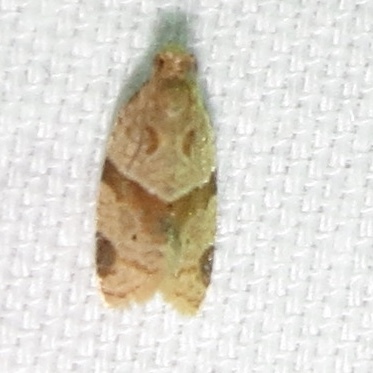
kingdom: Animalia
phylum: Arthropoda
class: Insecta
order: Lepidoptera
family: Tortricidae
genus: Clepsis
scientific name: Clepsis peritana
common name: Garden tortrix
